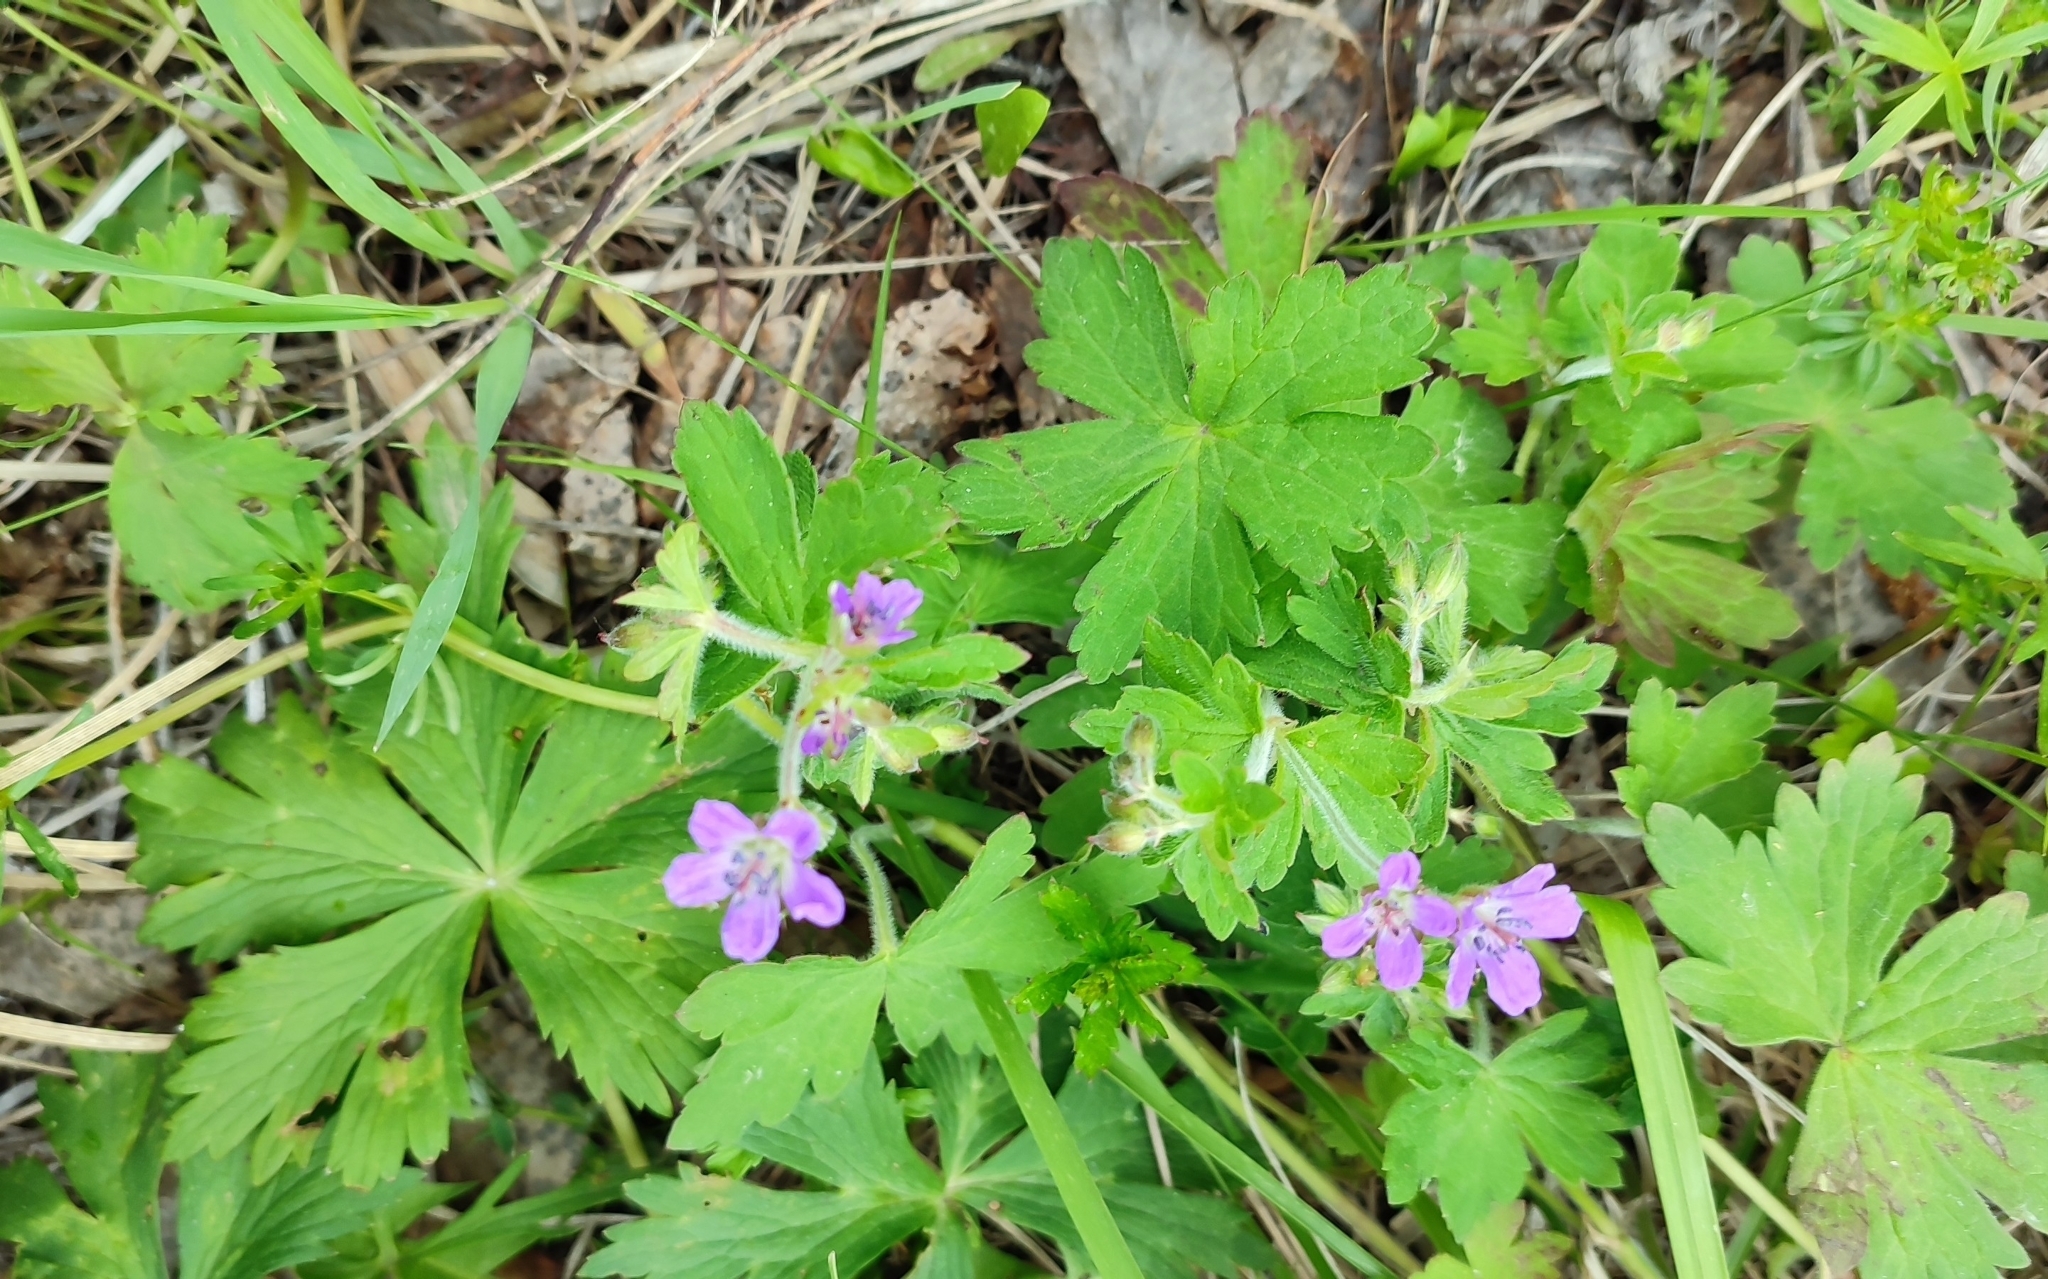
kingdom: Plantae
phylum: Tracheophyta
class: Magnoliopsida
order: Geraniales
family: Geraniaceae
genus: Geranium
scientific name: Geranium sylvaticum
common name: Wood crane's-bill
